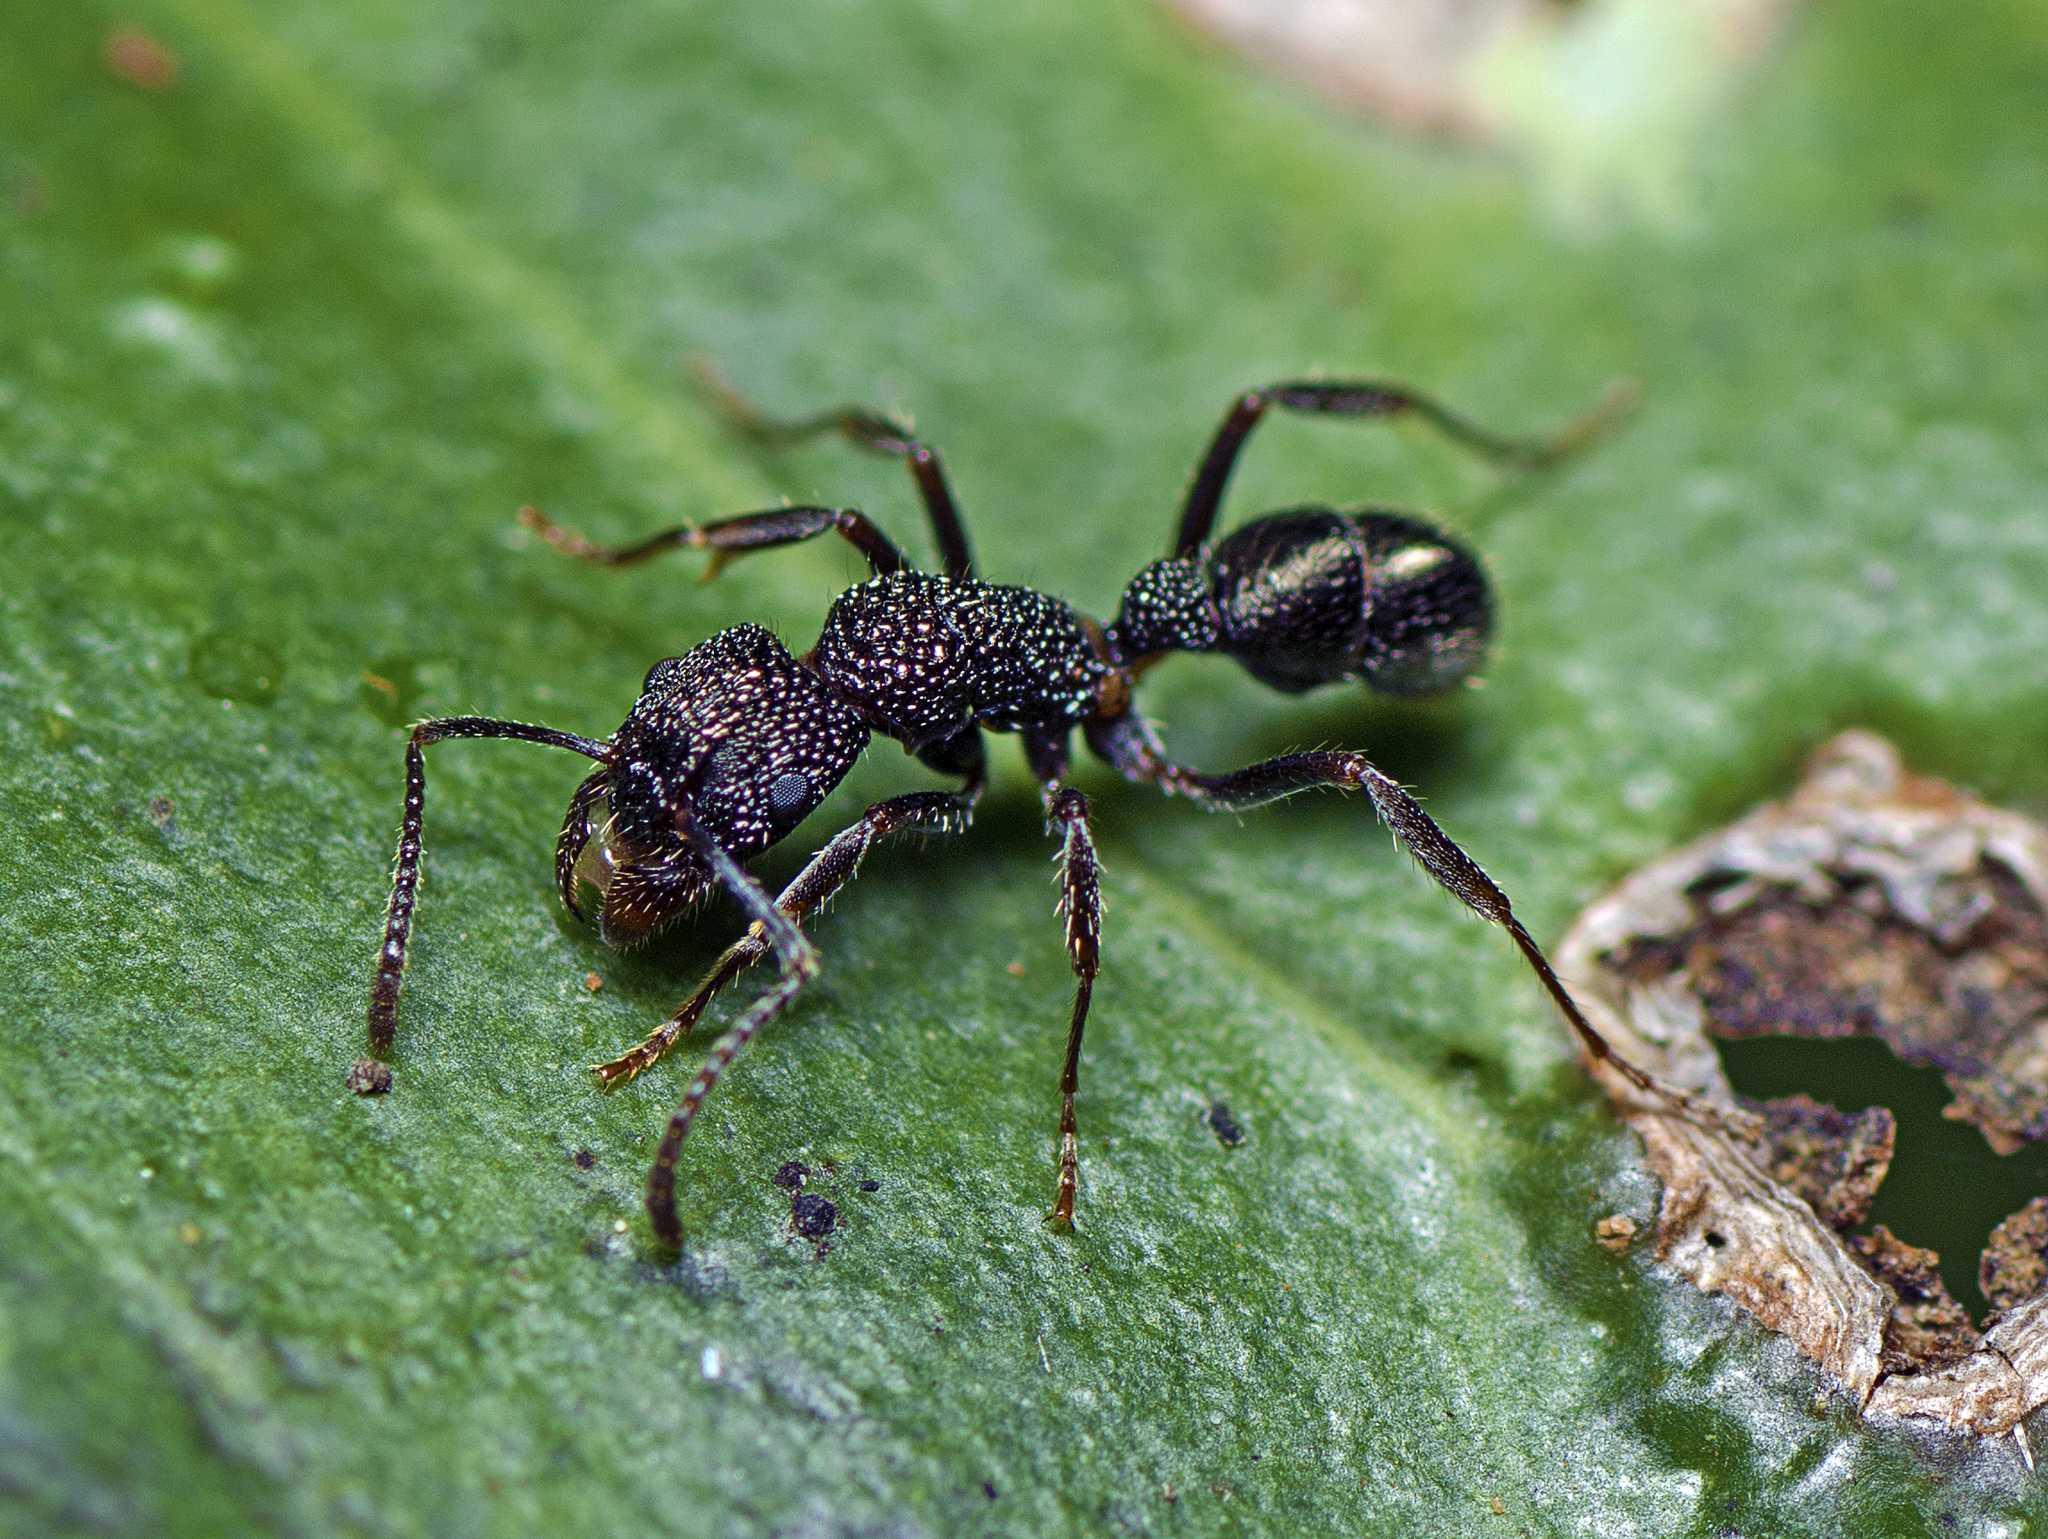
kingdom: Animalia
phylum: Arthropoda
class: Insecta
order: Hymenoptera
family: Formicidae
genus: Rhytidoponera
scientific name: Rhytidoponera anceps
